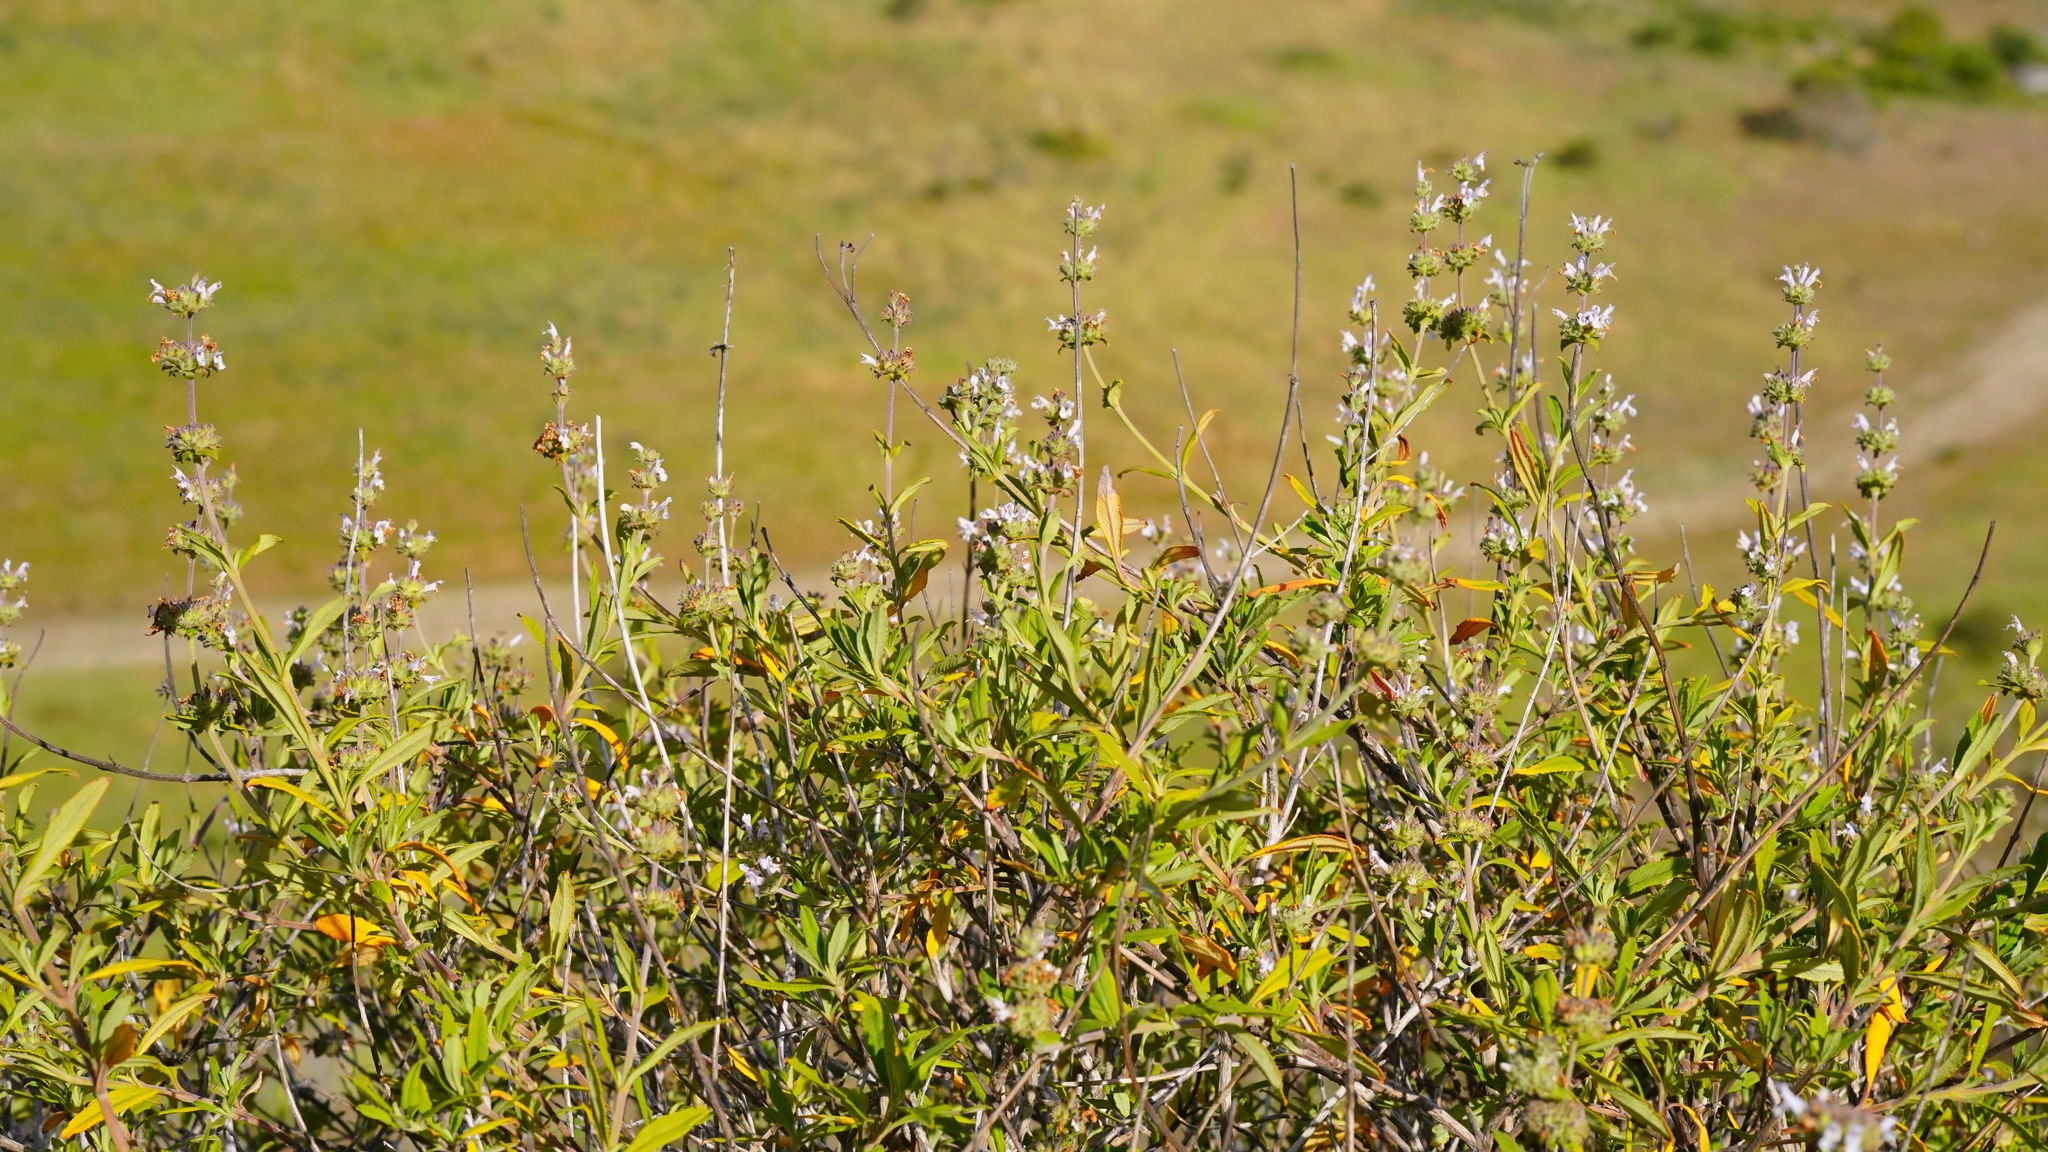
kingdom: Plantae
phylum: Tracheophyta
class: Magnoliopsida
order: Lamiales
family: Lamiaceae
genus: Salvia
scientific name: Salvia mellifera
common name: Black sage
